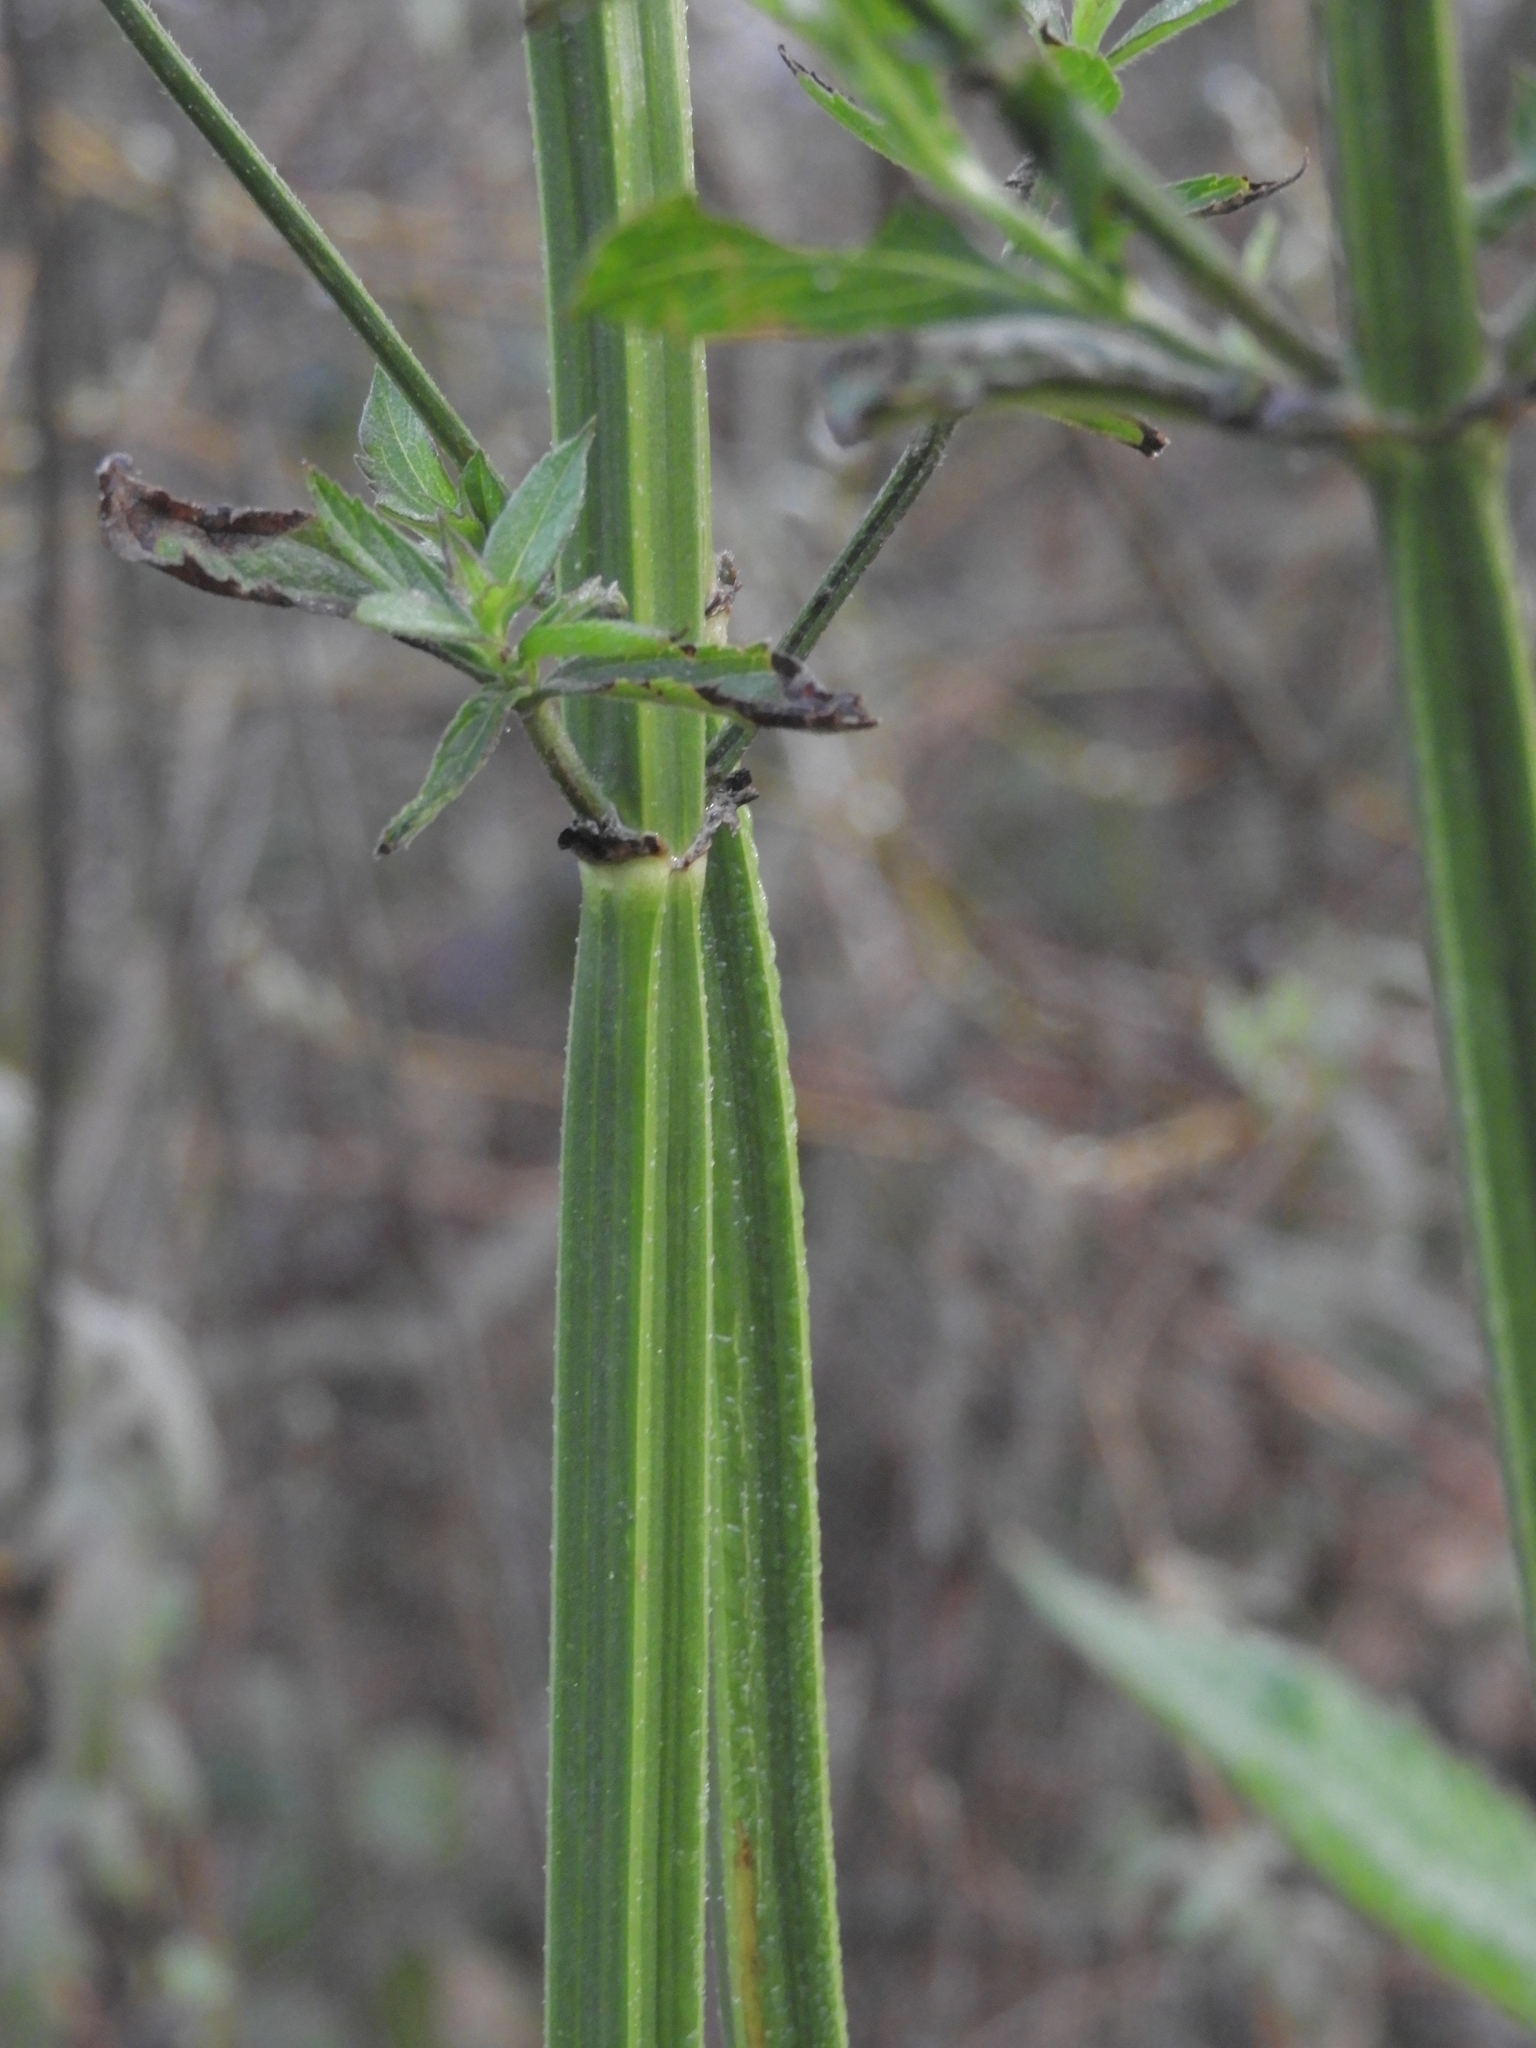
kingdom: Plantae
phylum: Tracheophyta
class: Magnoliopsida
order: Lamiales
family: Verbenaceae
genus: Verbena
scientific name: Verbena brasiliensis
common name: Brazilian vervain
